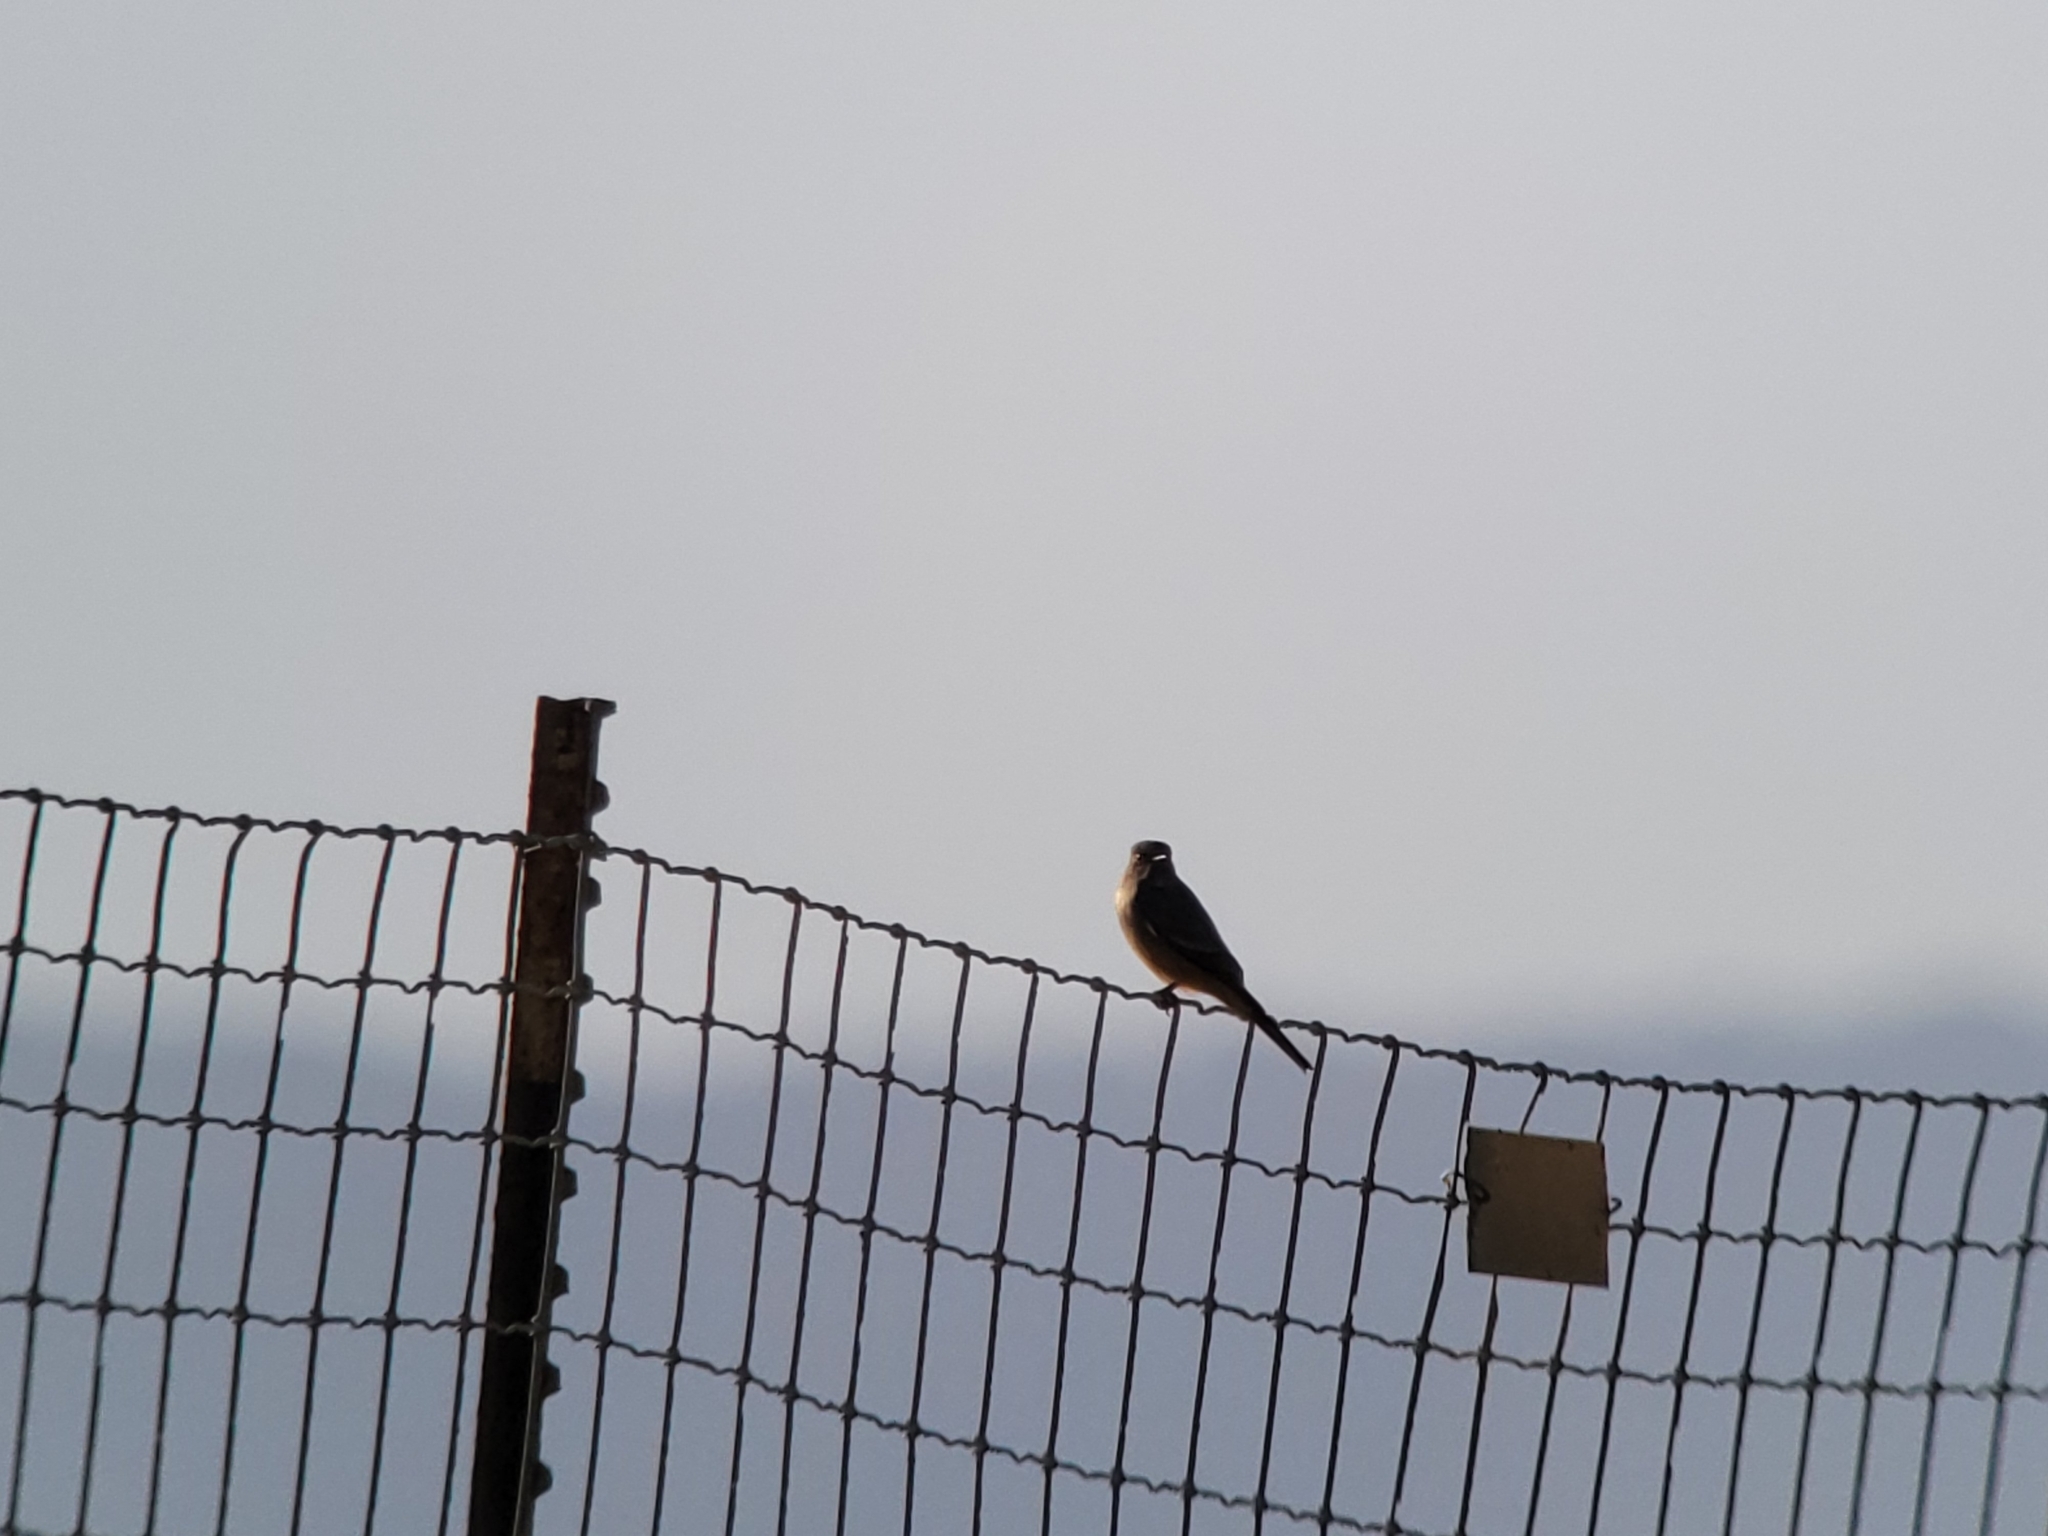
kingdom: Animalia
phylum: Chordata
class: Aves
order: Passeriformes
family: Tyrannidae
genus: Sayornis
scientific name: Sayornis saya
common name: Say's phoebe
